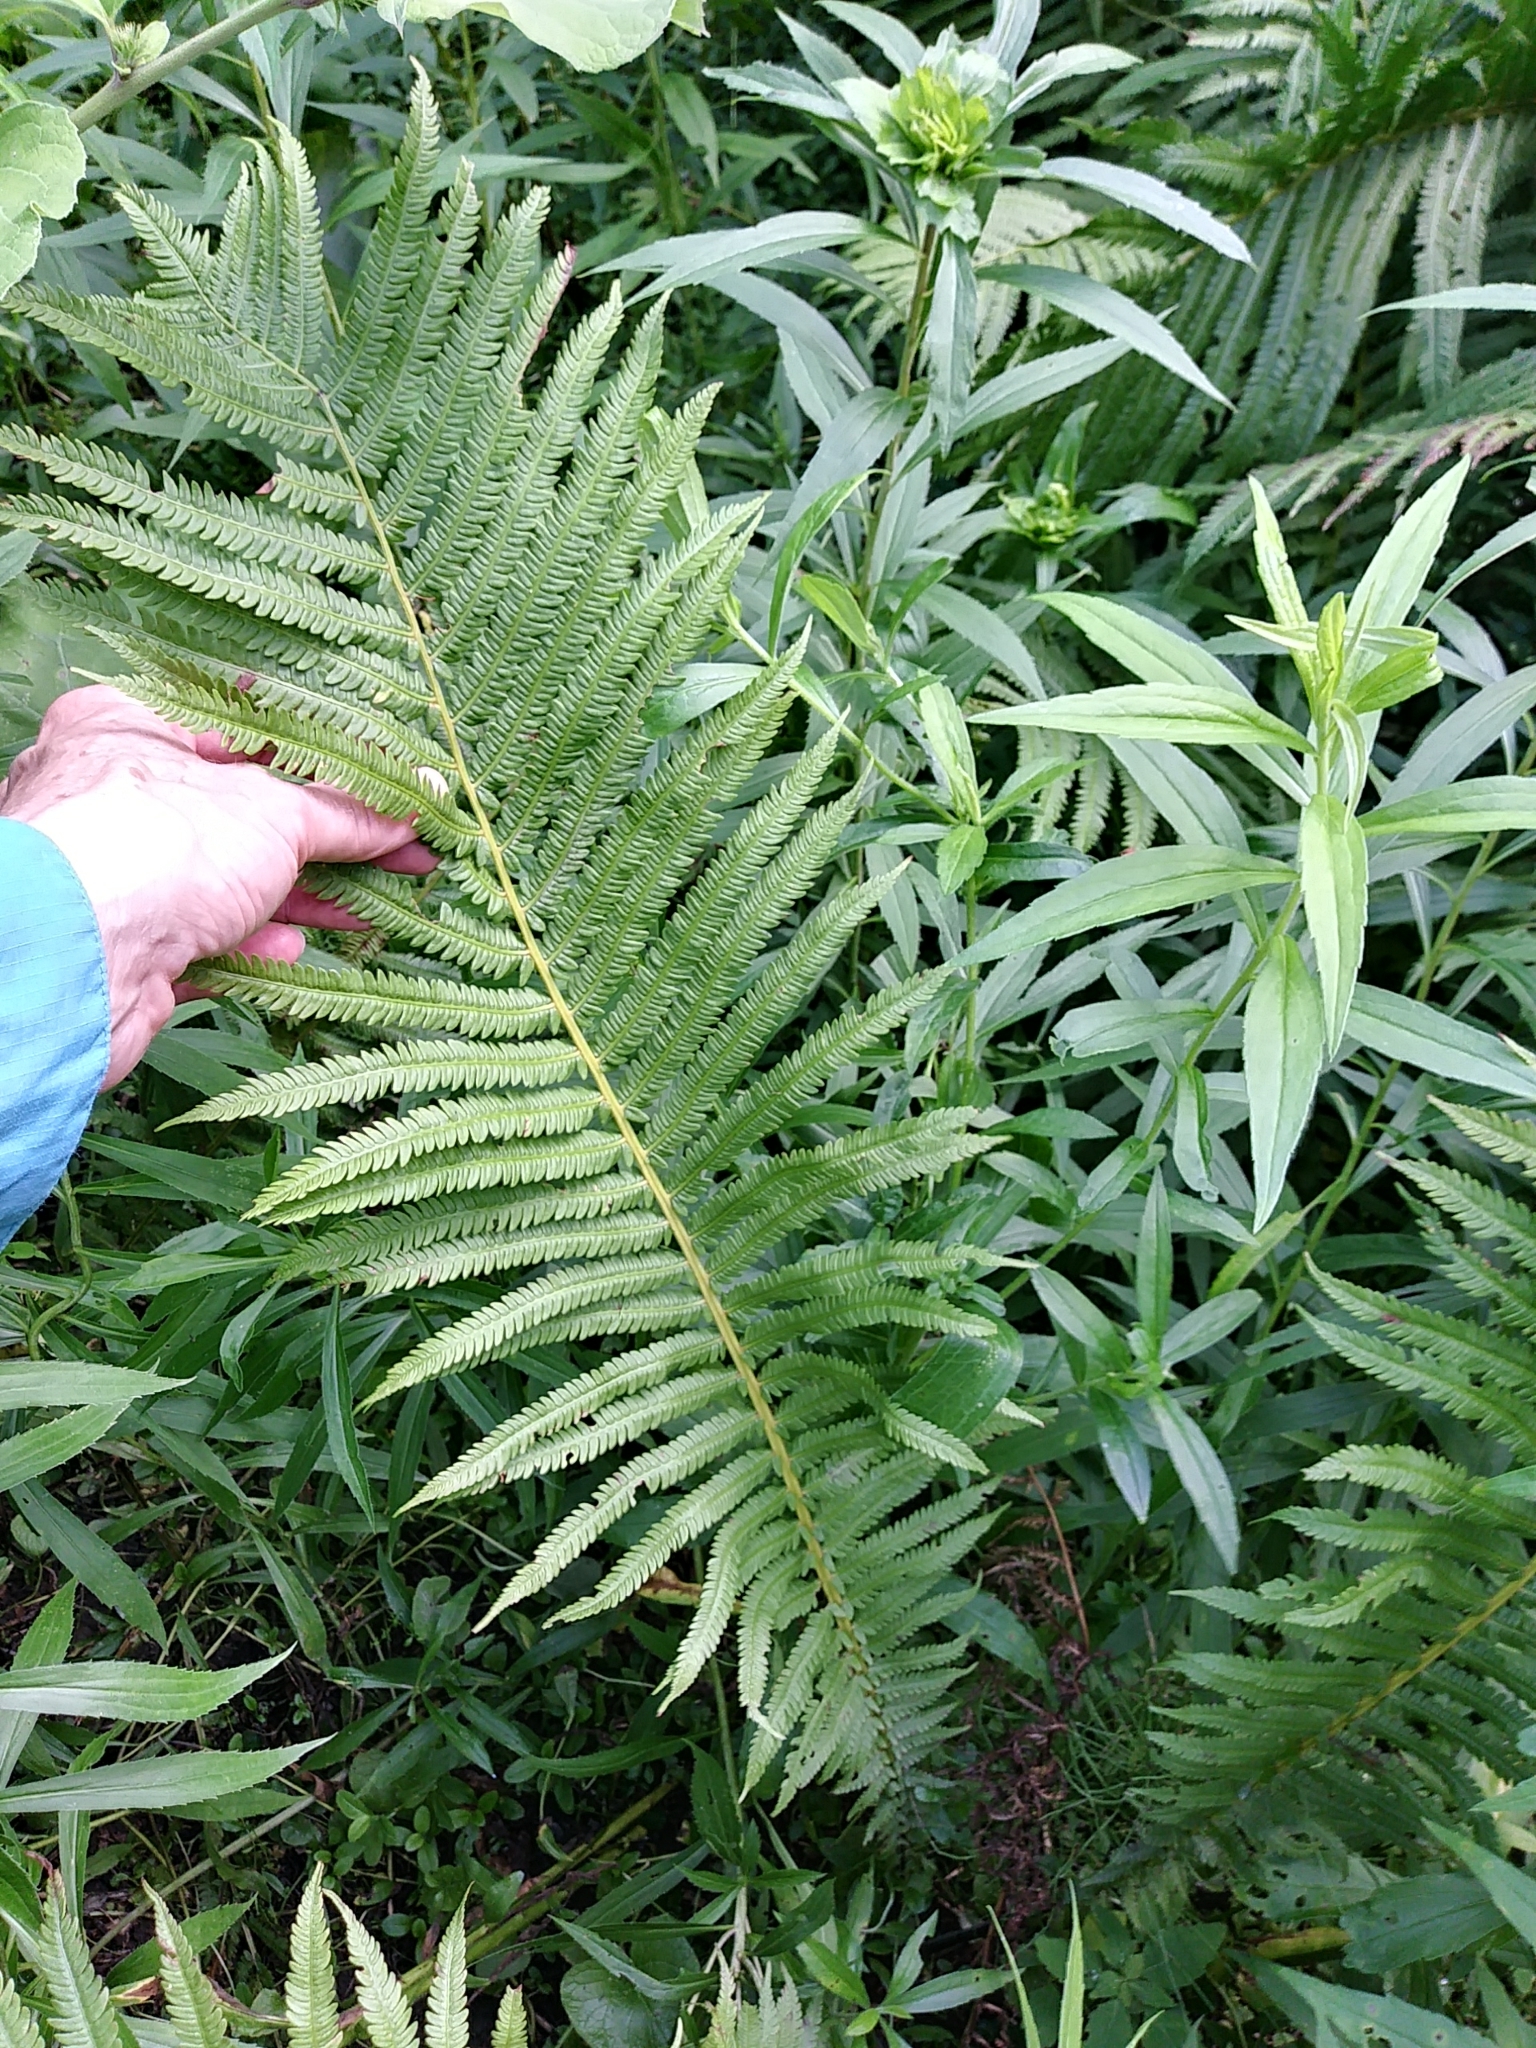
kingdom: Plantae
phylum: Tracheophyta
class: Polypodiopsida
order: Polypodiales
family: Onocleaceae
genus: Matteuccia
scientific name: Matteuccia struthiopteris
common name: Ostrich fern
